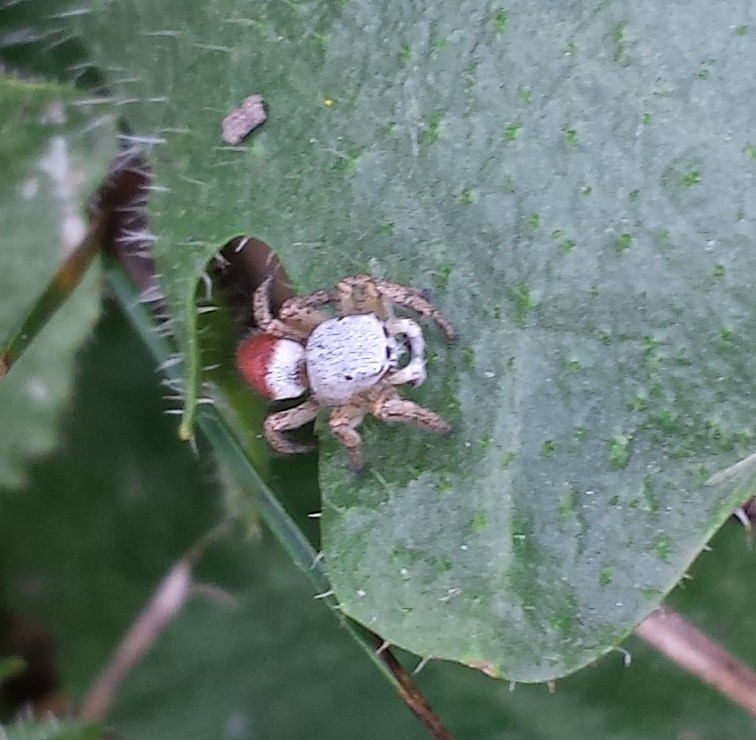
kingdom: Animalia
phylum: Arthropoda
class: Arachnida
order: Araneae
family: Salticidae
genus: Habronattus
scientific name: Habronattus decorus
